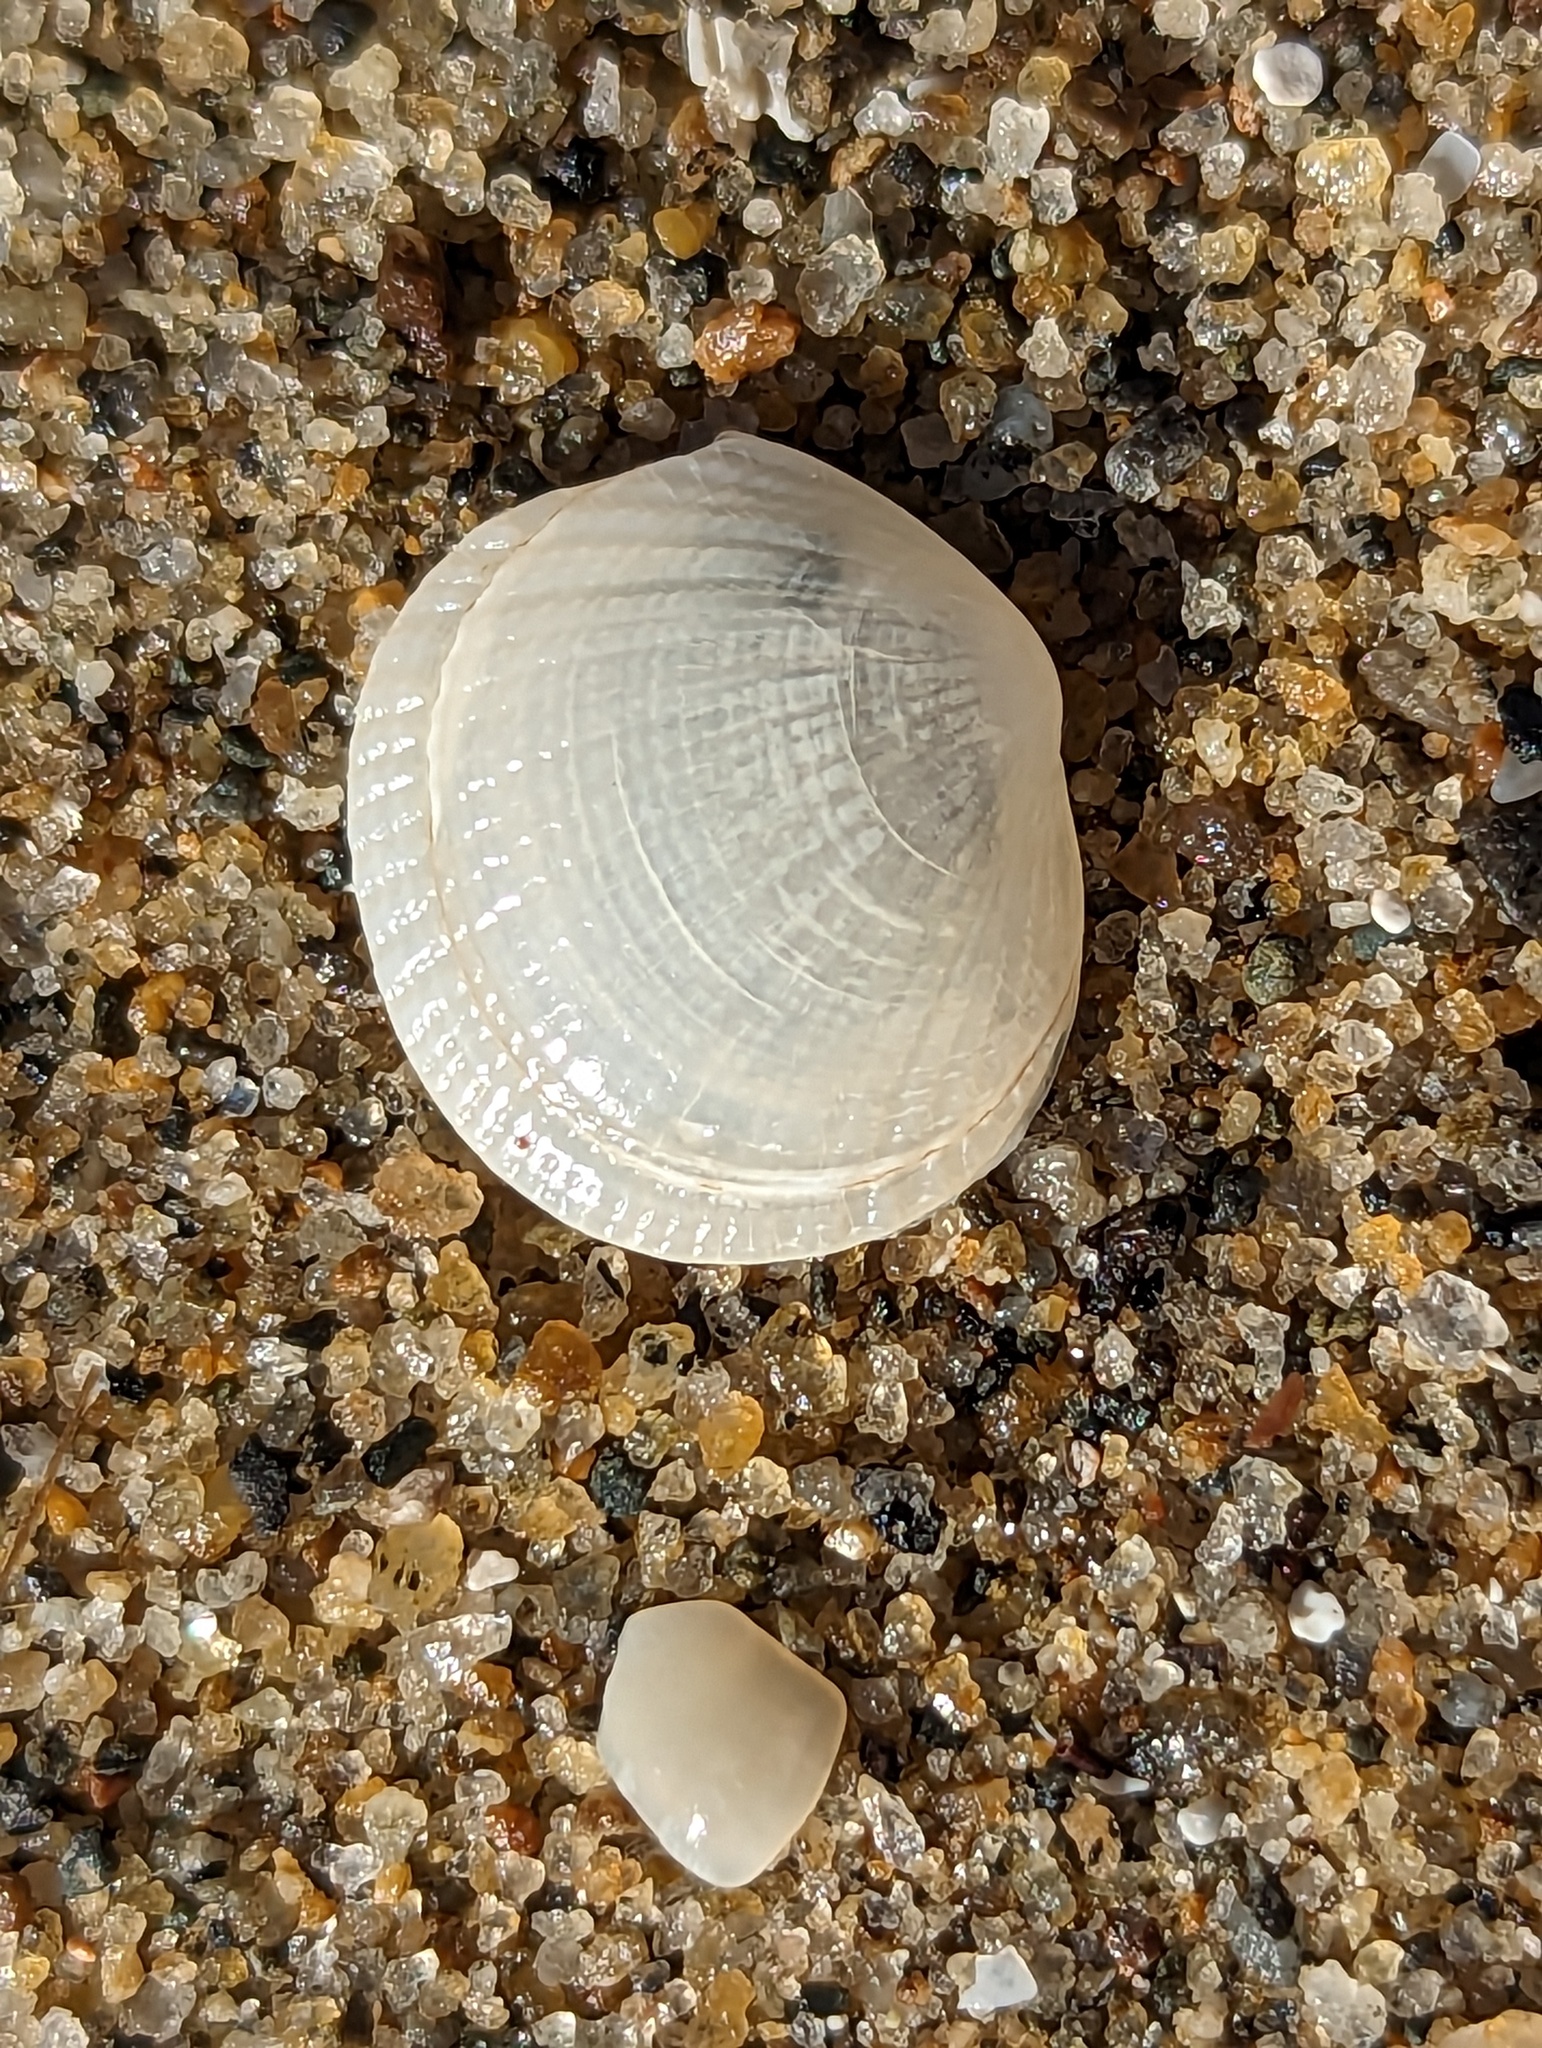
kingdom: Animalia
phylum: Mollusca
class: Bivalvia
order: Lucinida
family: Lucinidae
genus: Ctena
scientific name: Ctena orbiculata
